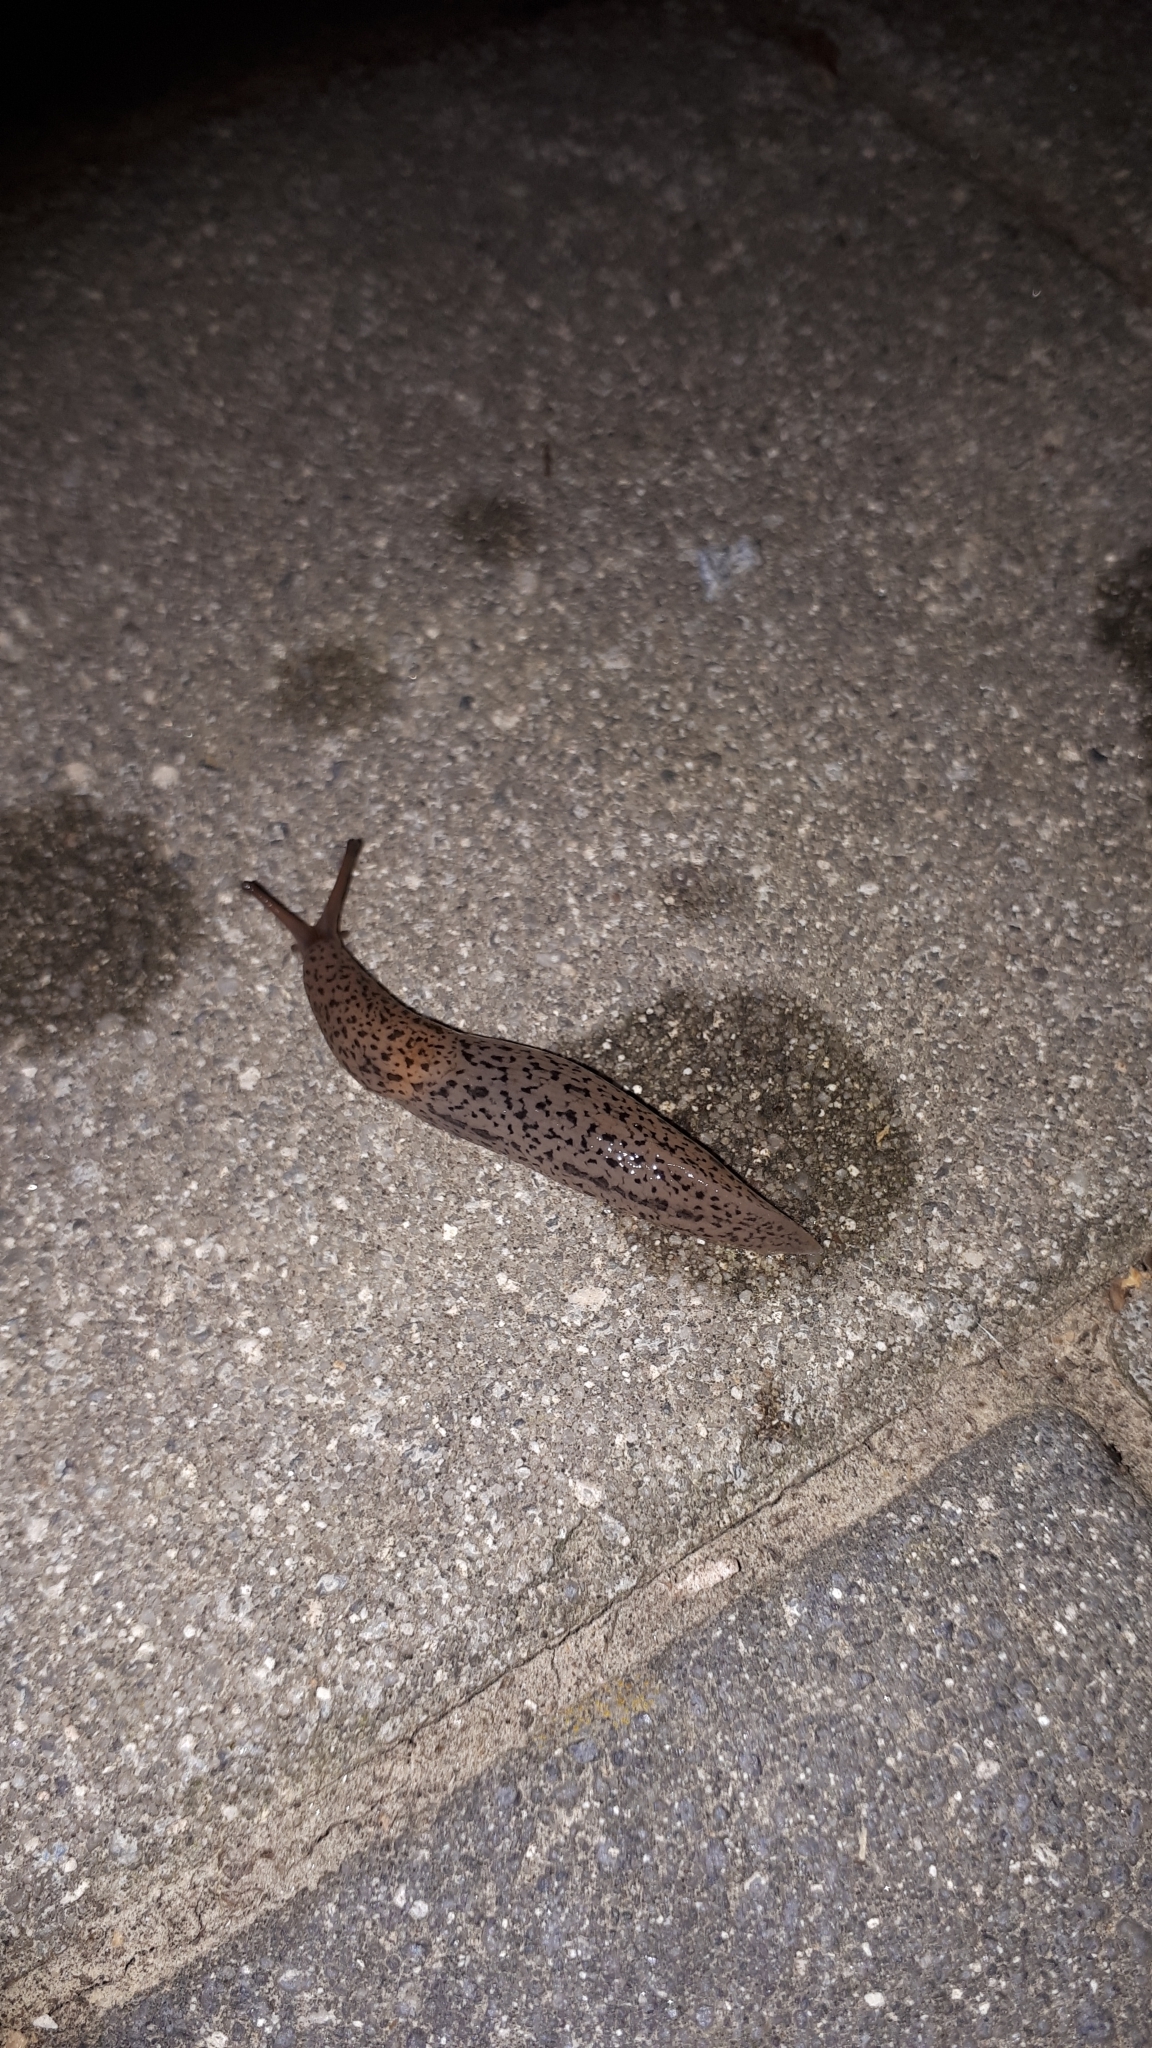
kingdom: Animalia
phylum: Mollusca
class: Gastropoda
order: Stylommatophora
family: Limacidae
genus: Limax
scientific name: Limax maximus
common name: Great grey slug
